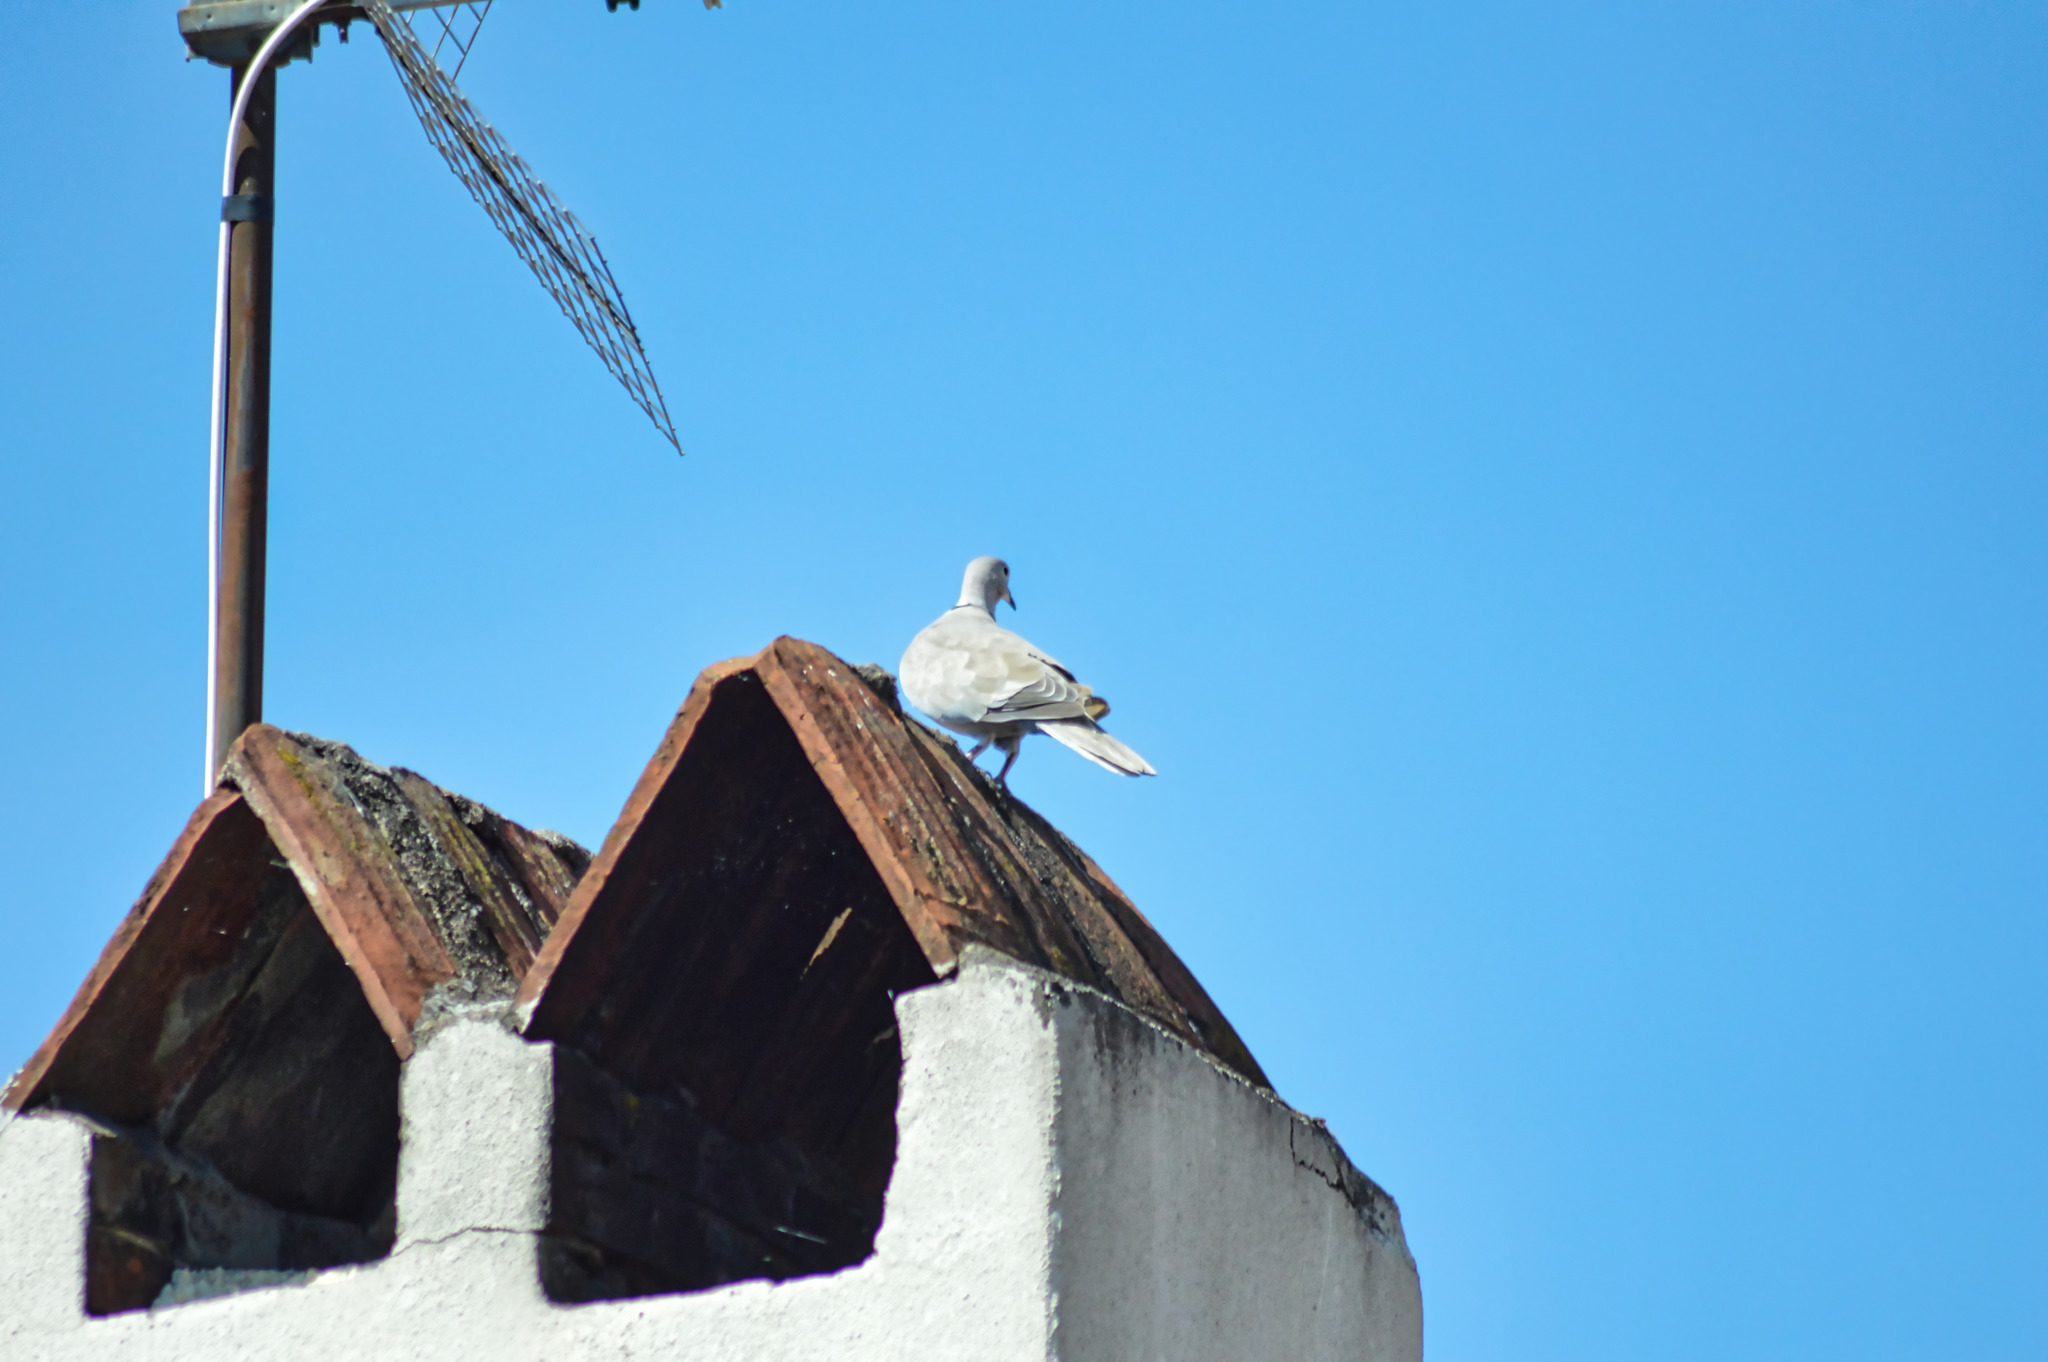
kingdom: Animalia
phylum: Chordata
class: Aves
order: Columbiformes
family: Columbidae
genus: Streptopelia
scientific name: Streptopelia decaocto
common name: Eurasian collared dove
